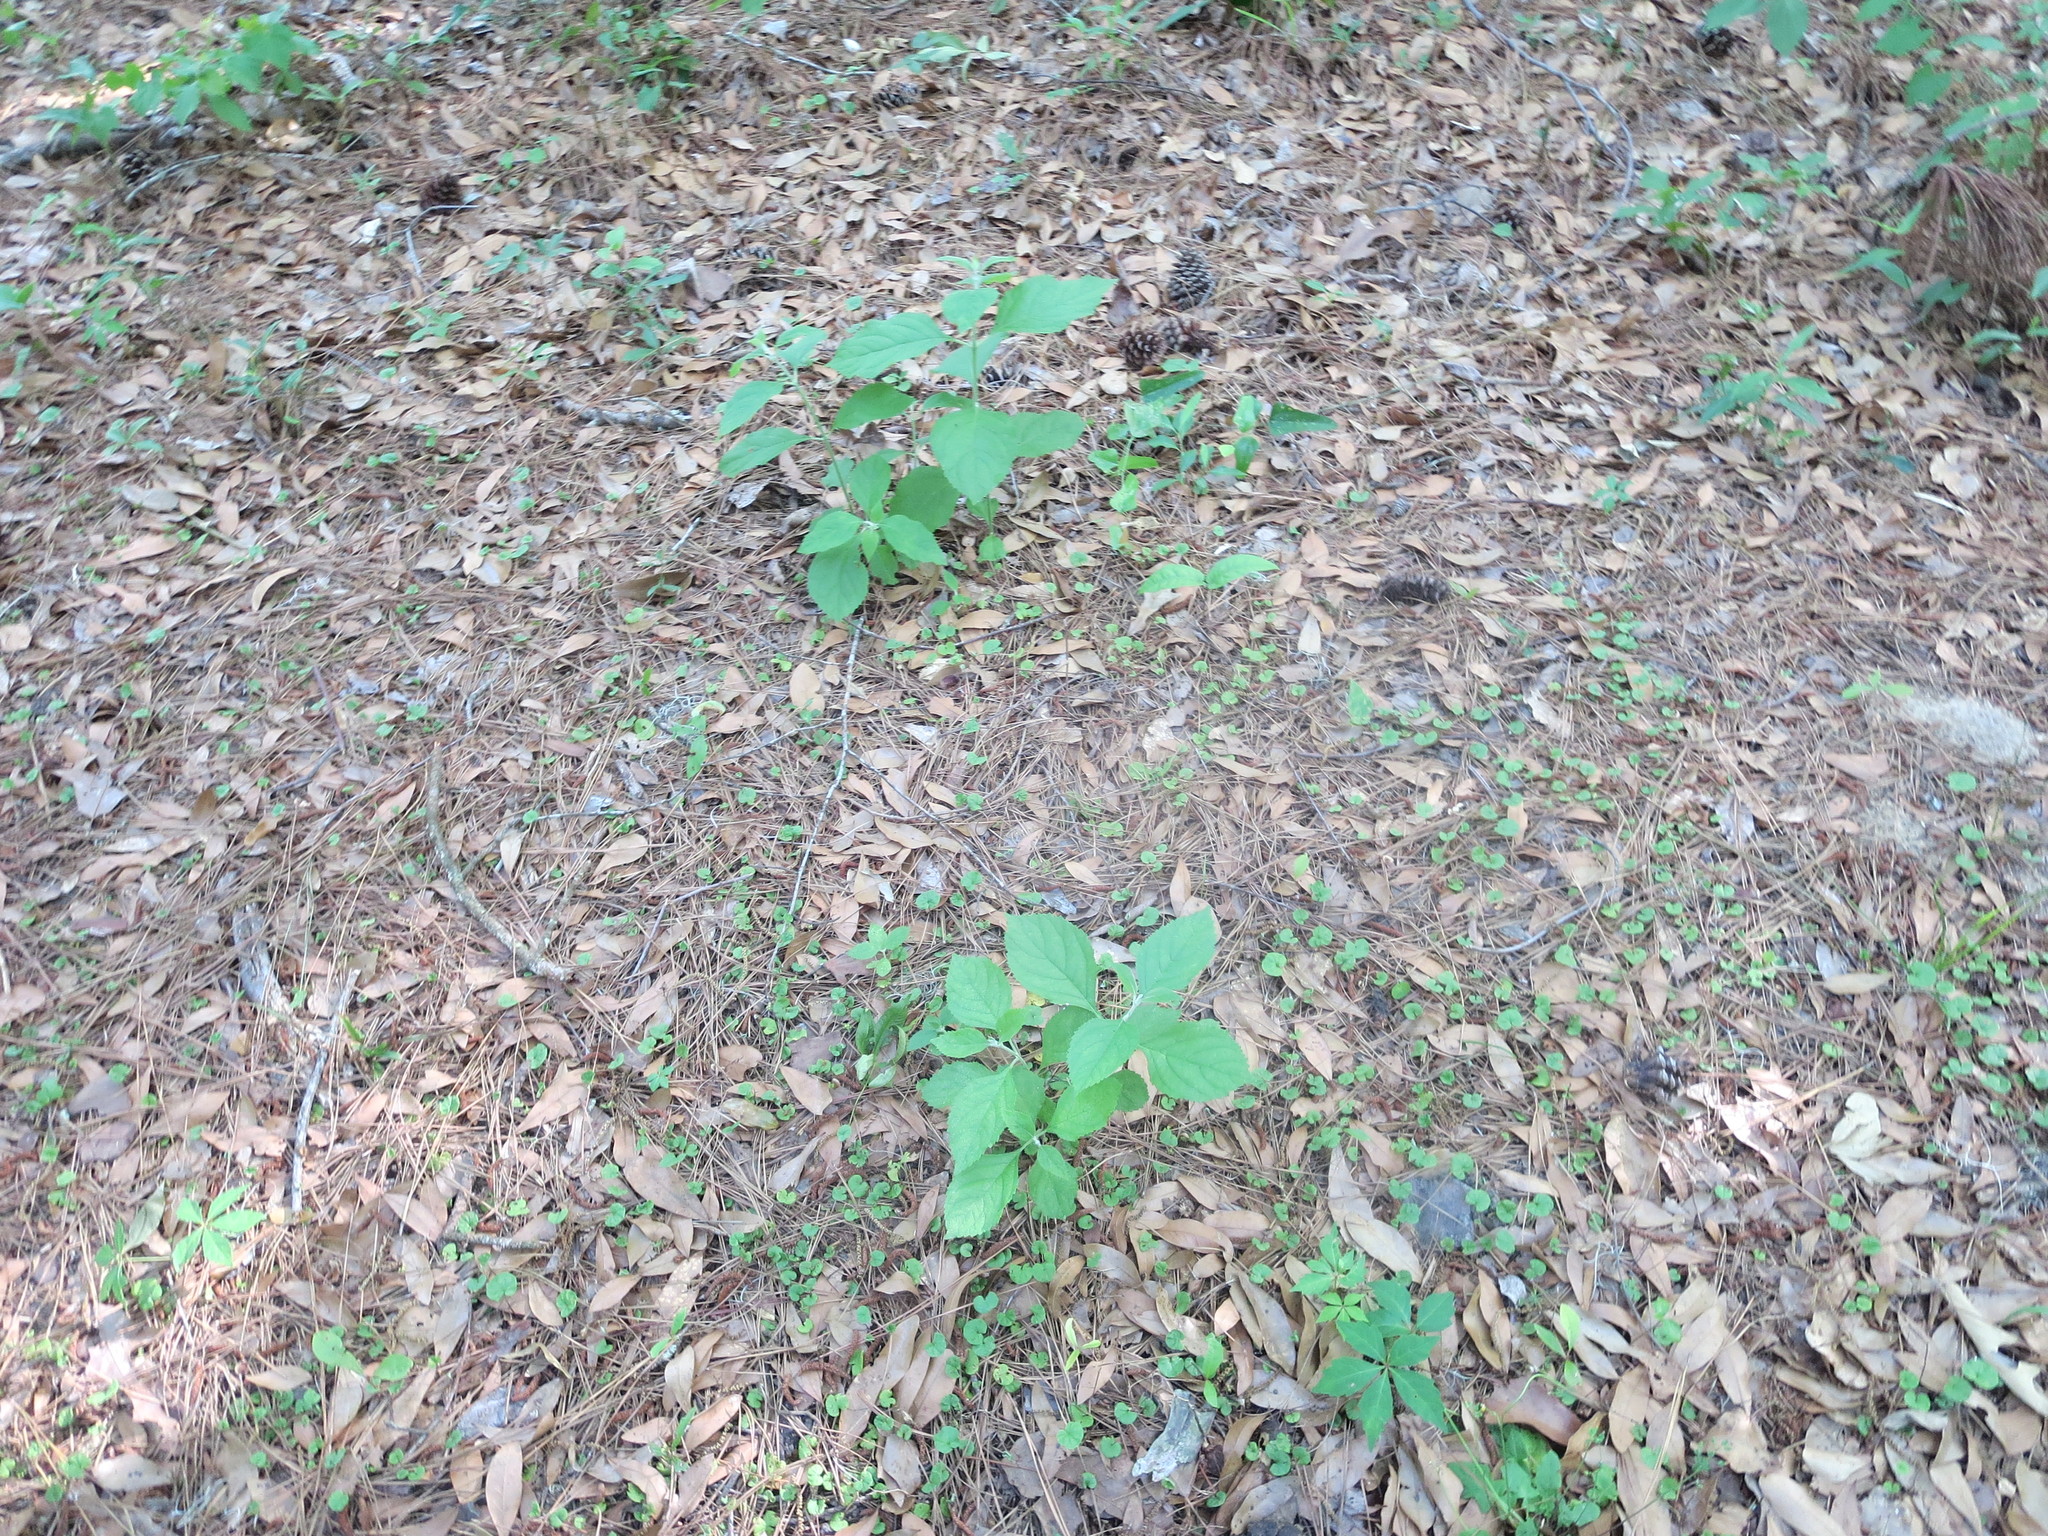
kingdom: Plantae
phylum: Tracheophyta
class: Magnoliopsida
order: Lamiales
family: Lamiaceae
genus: Callicarpa
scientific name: Callicarpa americana
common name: American beautyberry
